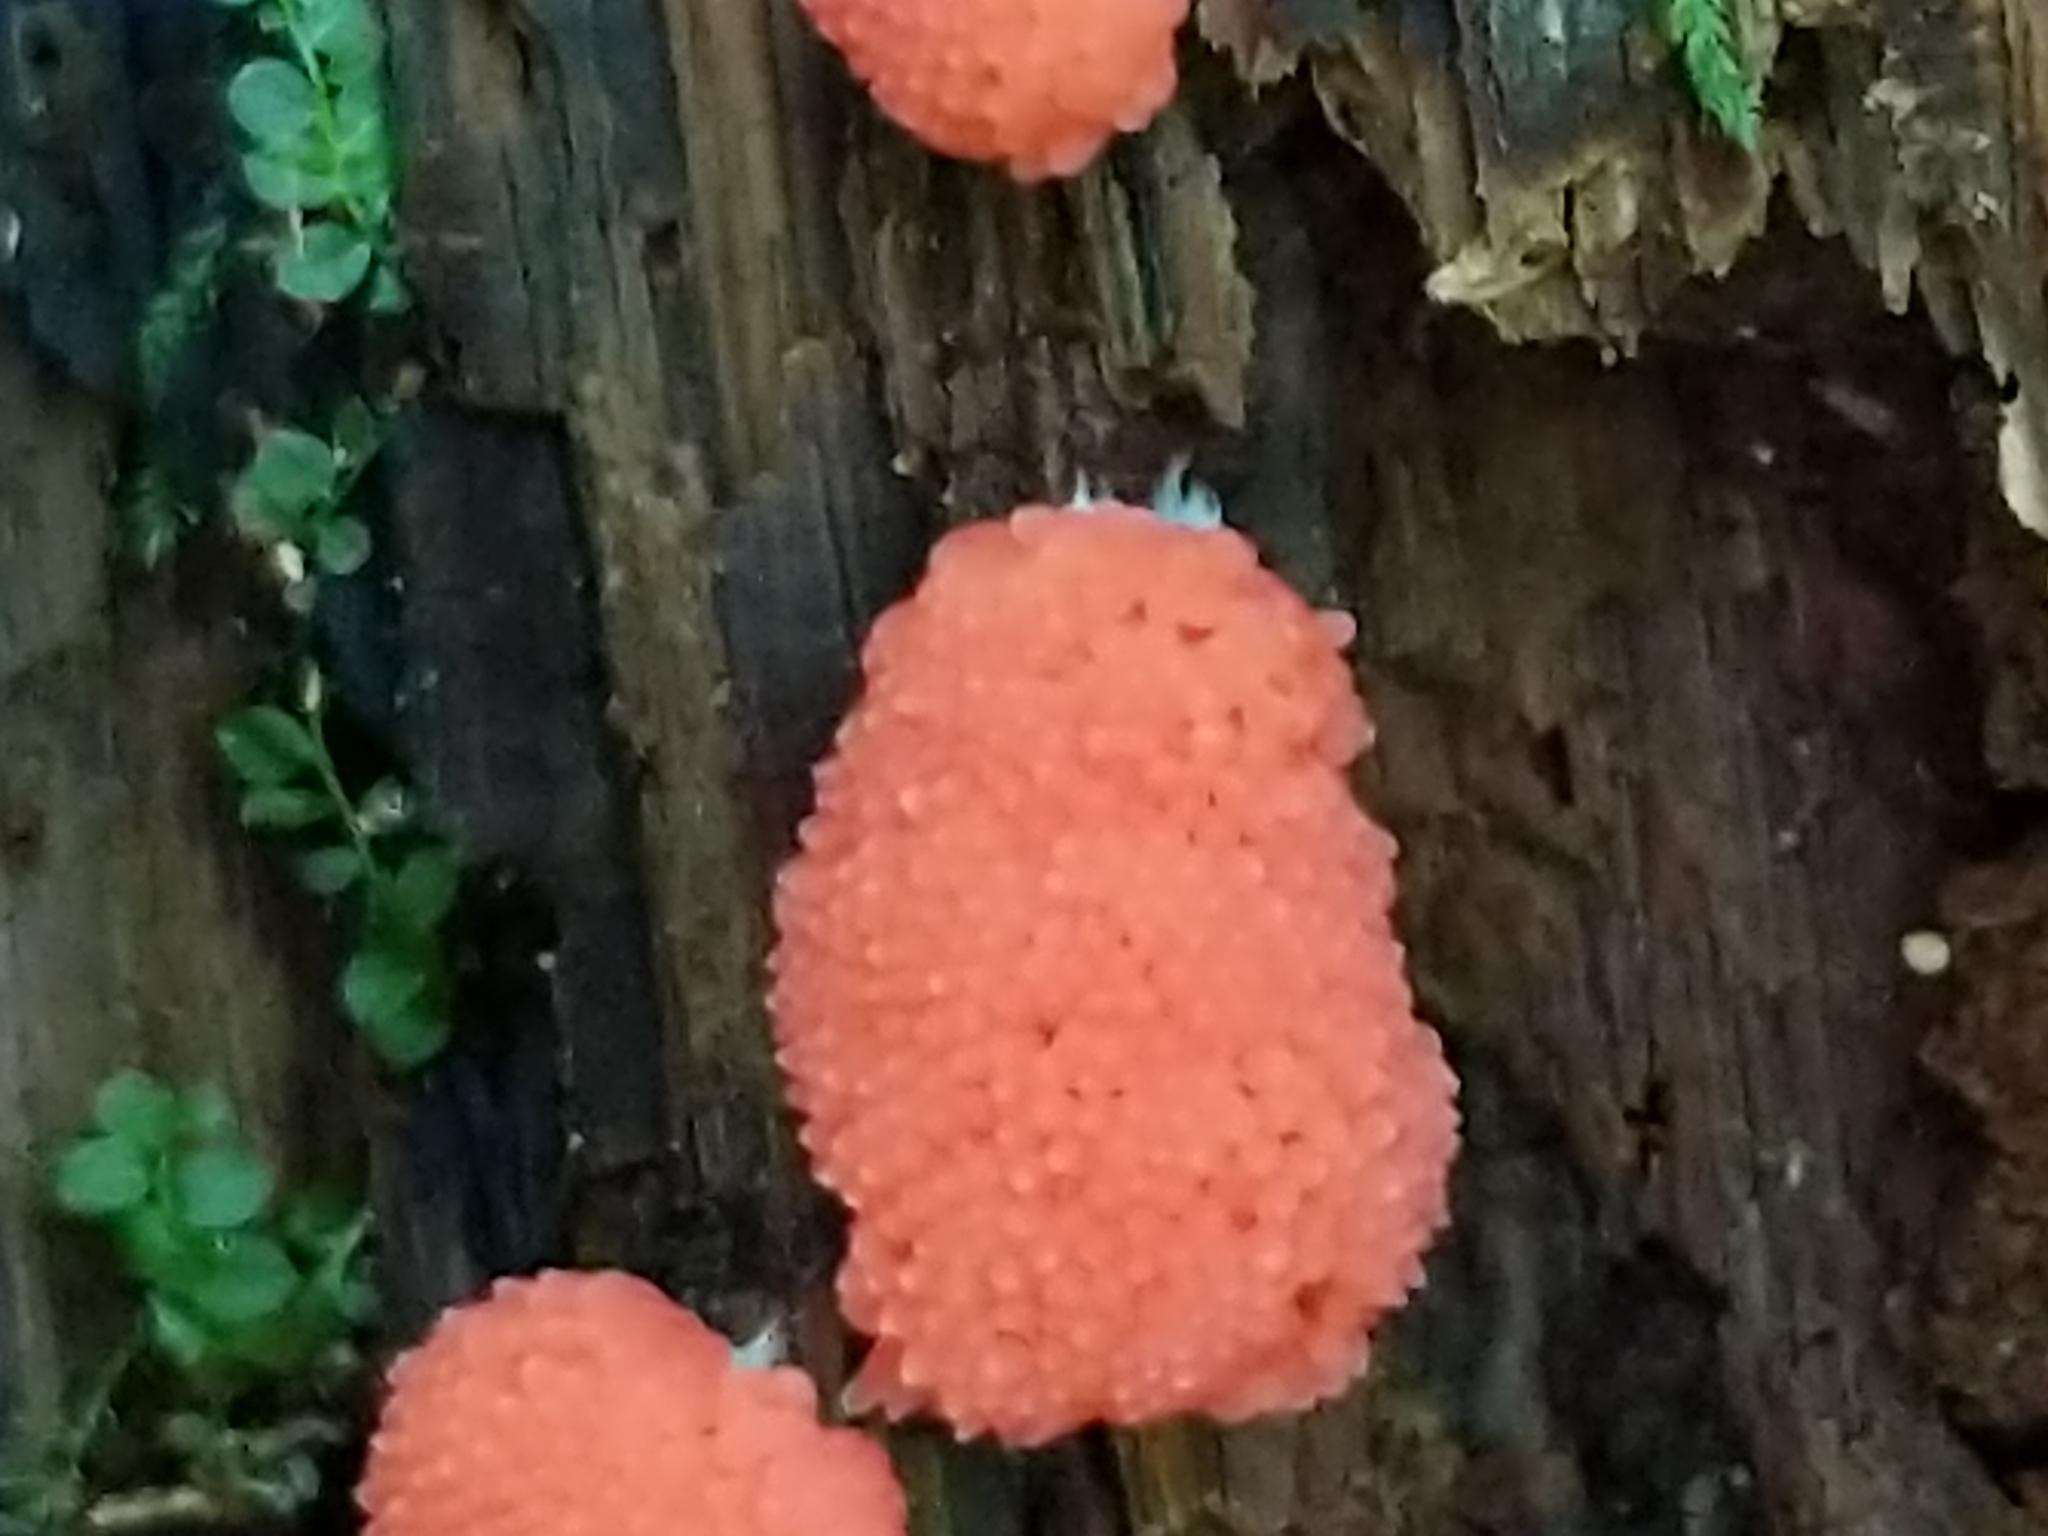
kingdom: Protozoa
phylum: Mycetozoa
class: Myxomycetes
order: Cribrariales
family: Tubiferaceae
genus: Tubifera
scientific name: Tubifera ferruginosa
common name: Red raspberry slime mold
